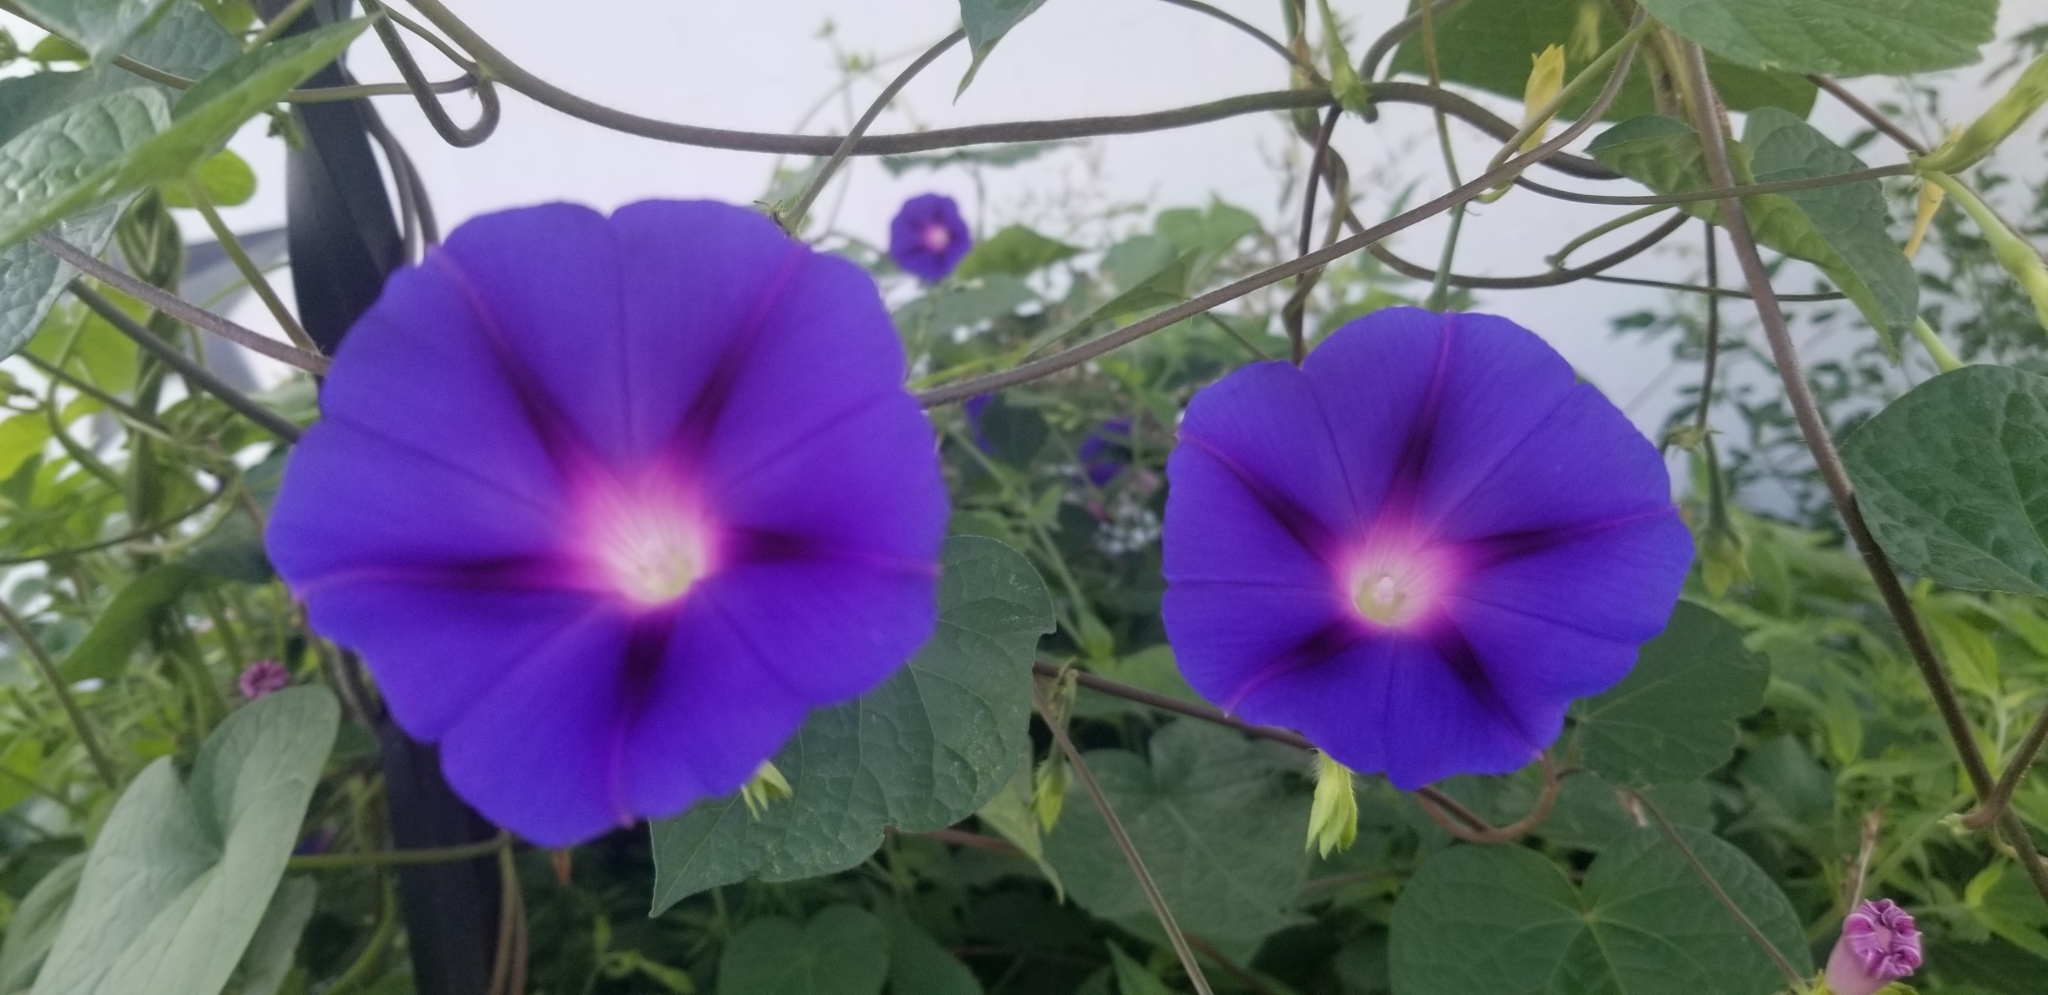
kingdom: Plantae
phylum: Tracheophyta
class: Magnoliopsida
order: Solanales
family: Convolvulaceae
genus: Ipomoea
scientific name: Ipomoea purpurea
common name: Common morning-glory
